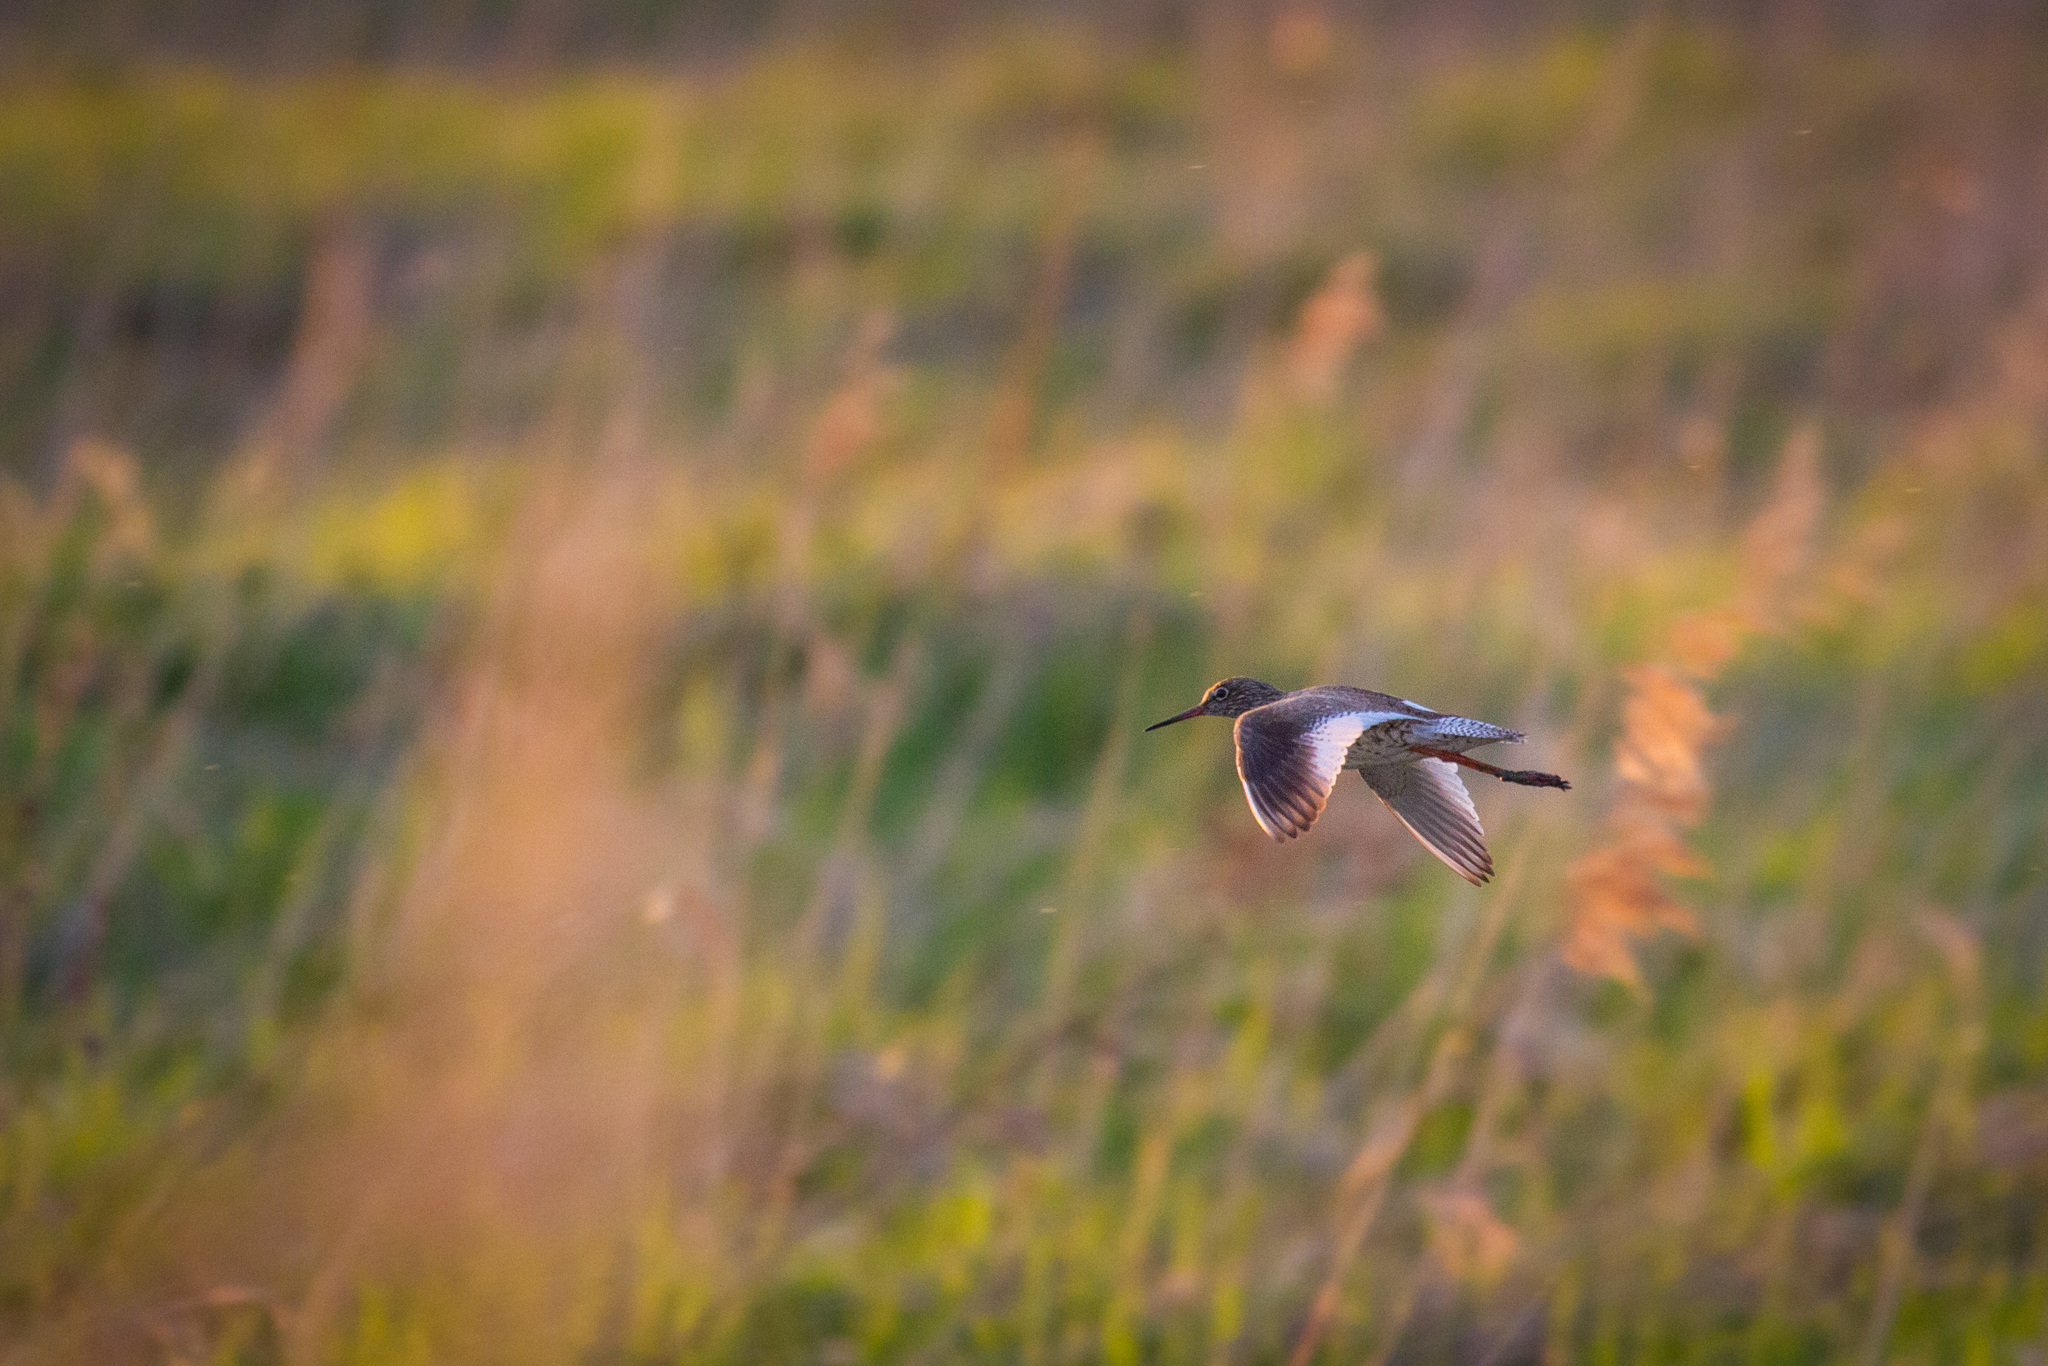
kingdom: Animalia
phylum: Chordata
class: Aves
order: Charadriiformes
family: Scolopacidae
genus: Tringa
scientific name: Tringa totanus
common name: Common redshank
